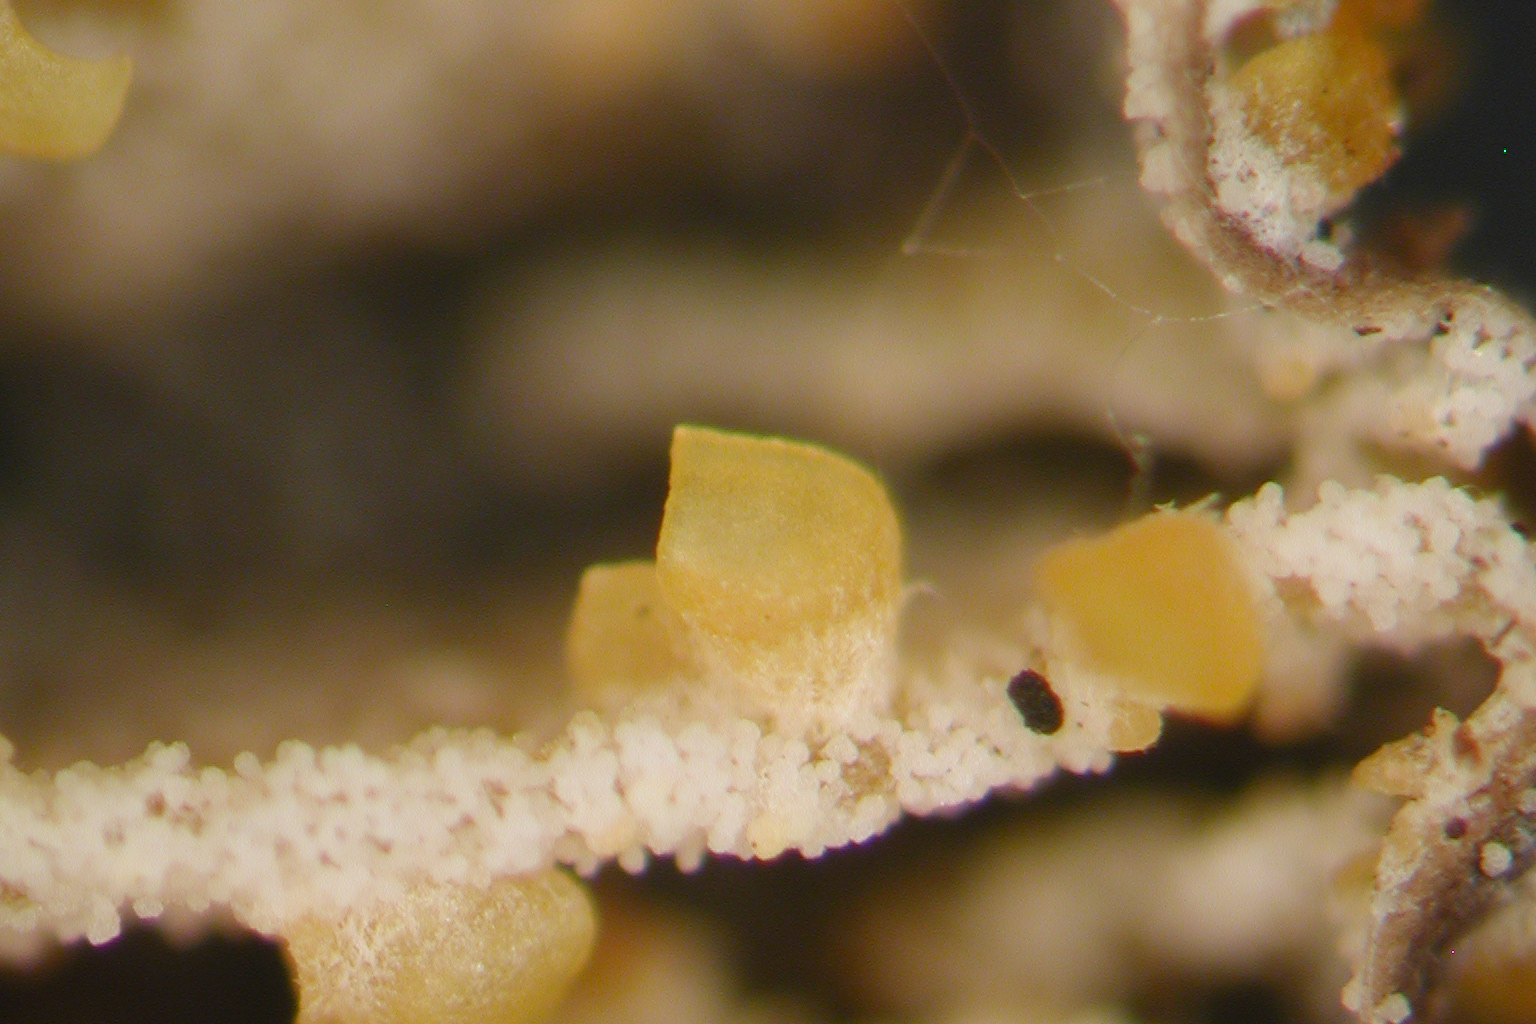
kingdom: Fungi
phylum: Ascomycota
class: Sordariomycetes
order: Hypocreales
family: Clavicipitaceae
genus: Neobarya
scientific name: Neobarya agaricicola
